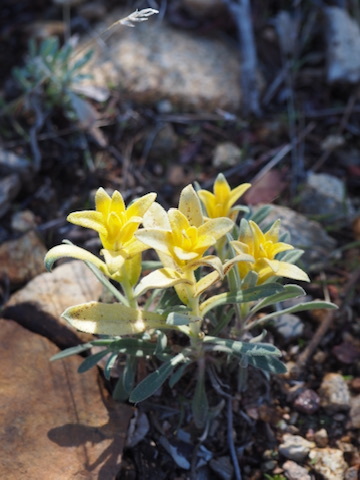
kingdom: Fungi
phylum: Basidiomycota
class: Pucciniomycetes
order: Pucciniales
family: Pucciniaceae
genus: Puccinia
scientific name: Puccinia monoica
